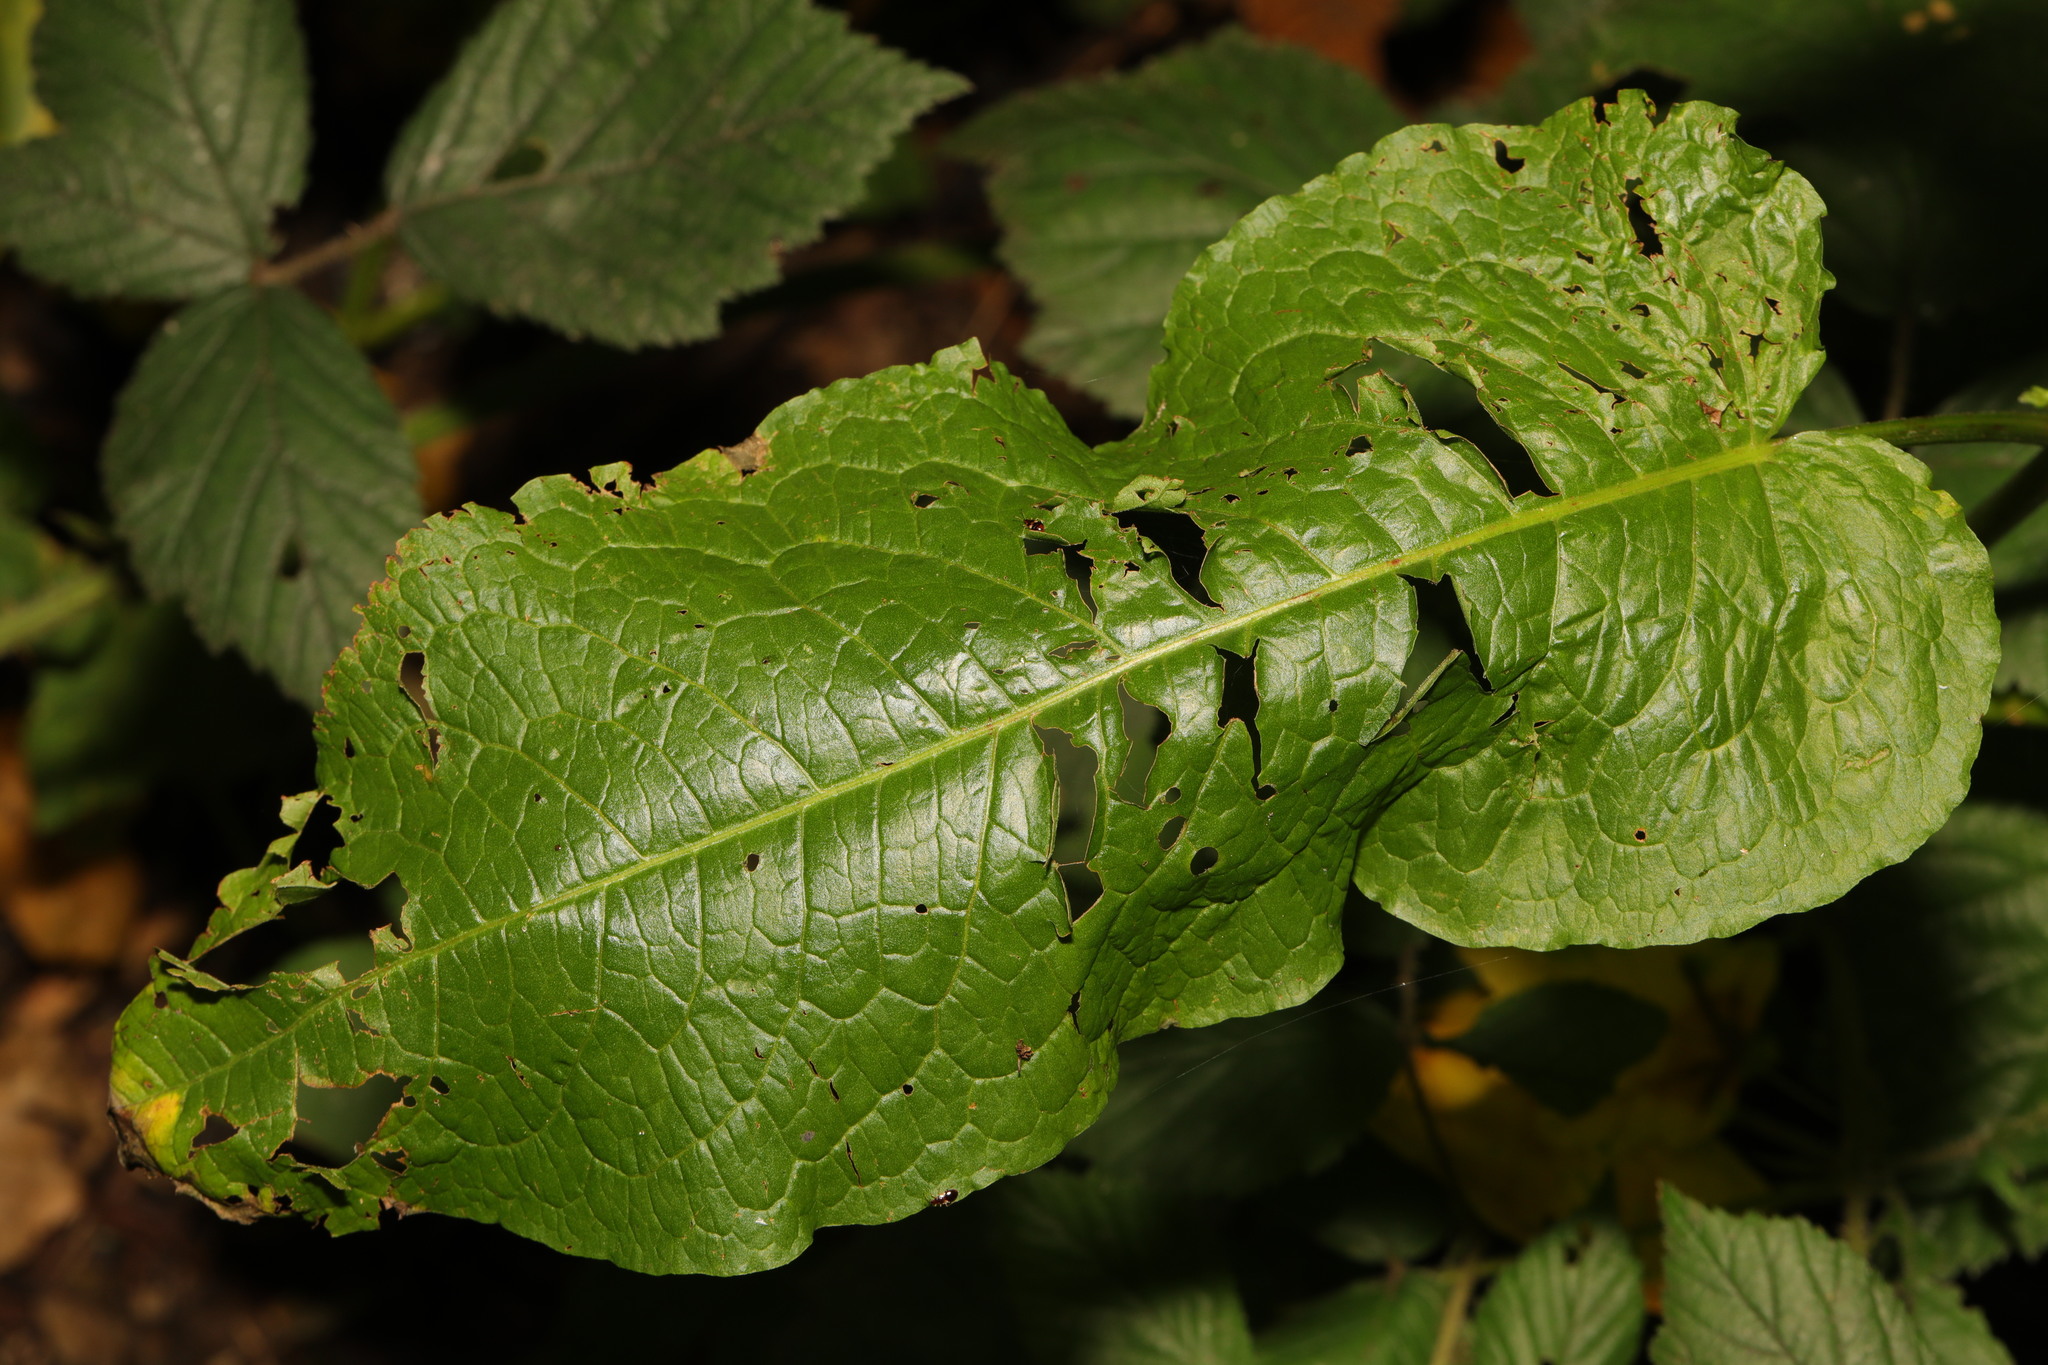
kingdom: Plantae
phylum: Tracheophyta
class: Magnoliopsida
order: Caryophyllales
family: Polygonaceae
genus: Rumex
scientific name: Rumex obtusifolius
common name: Bitter dock
